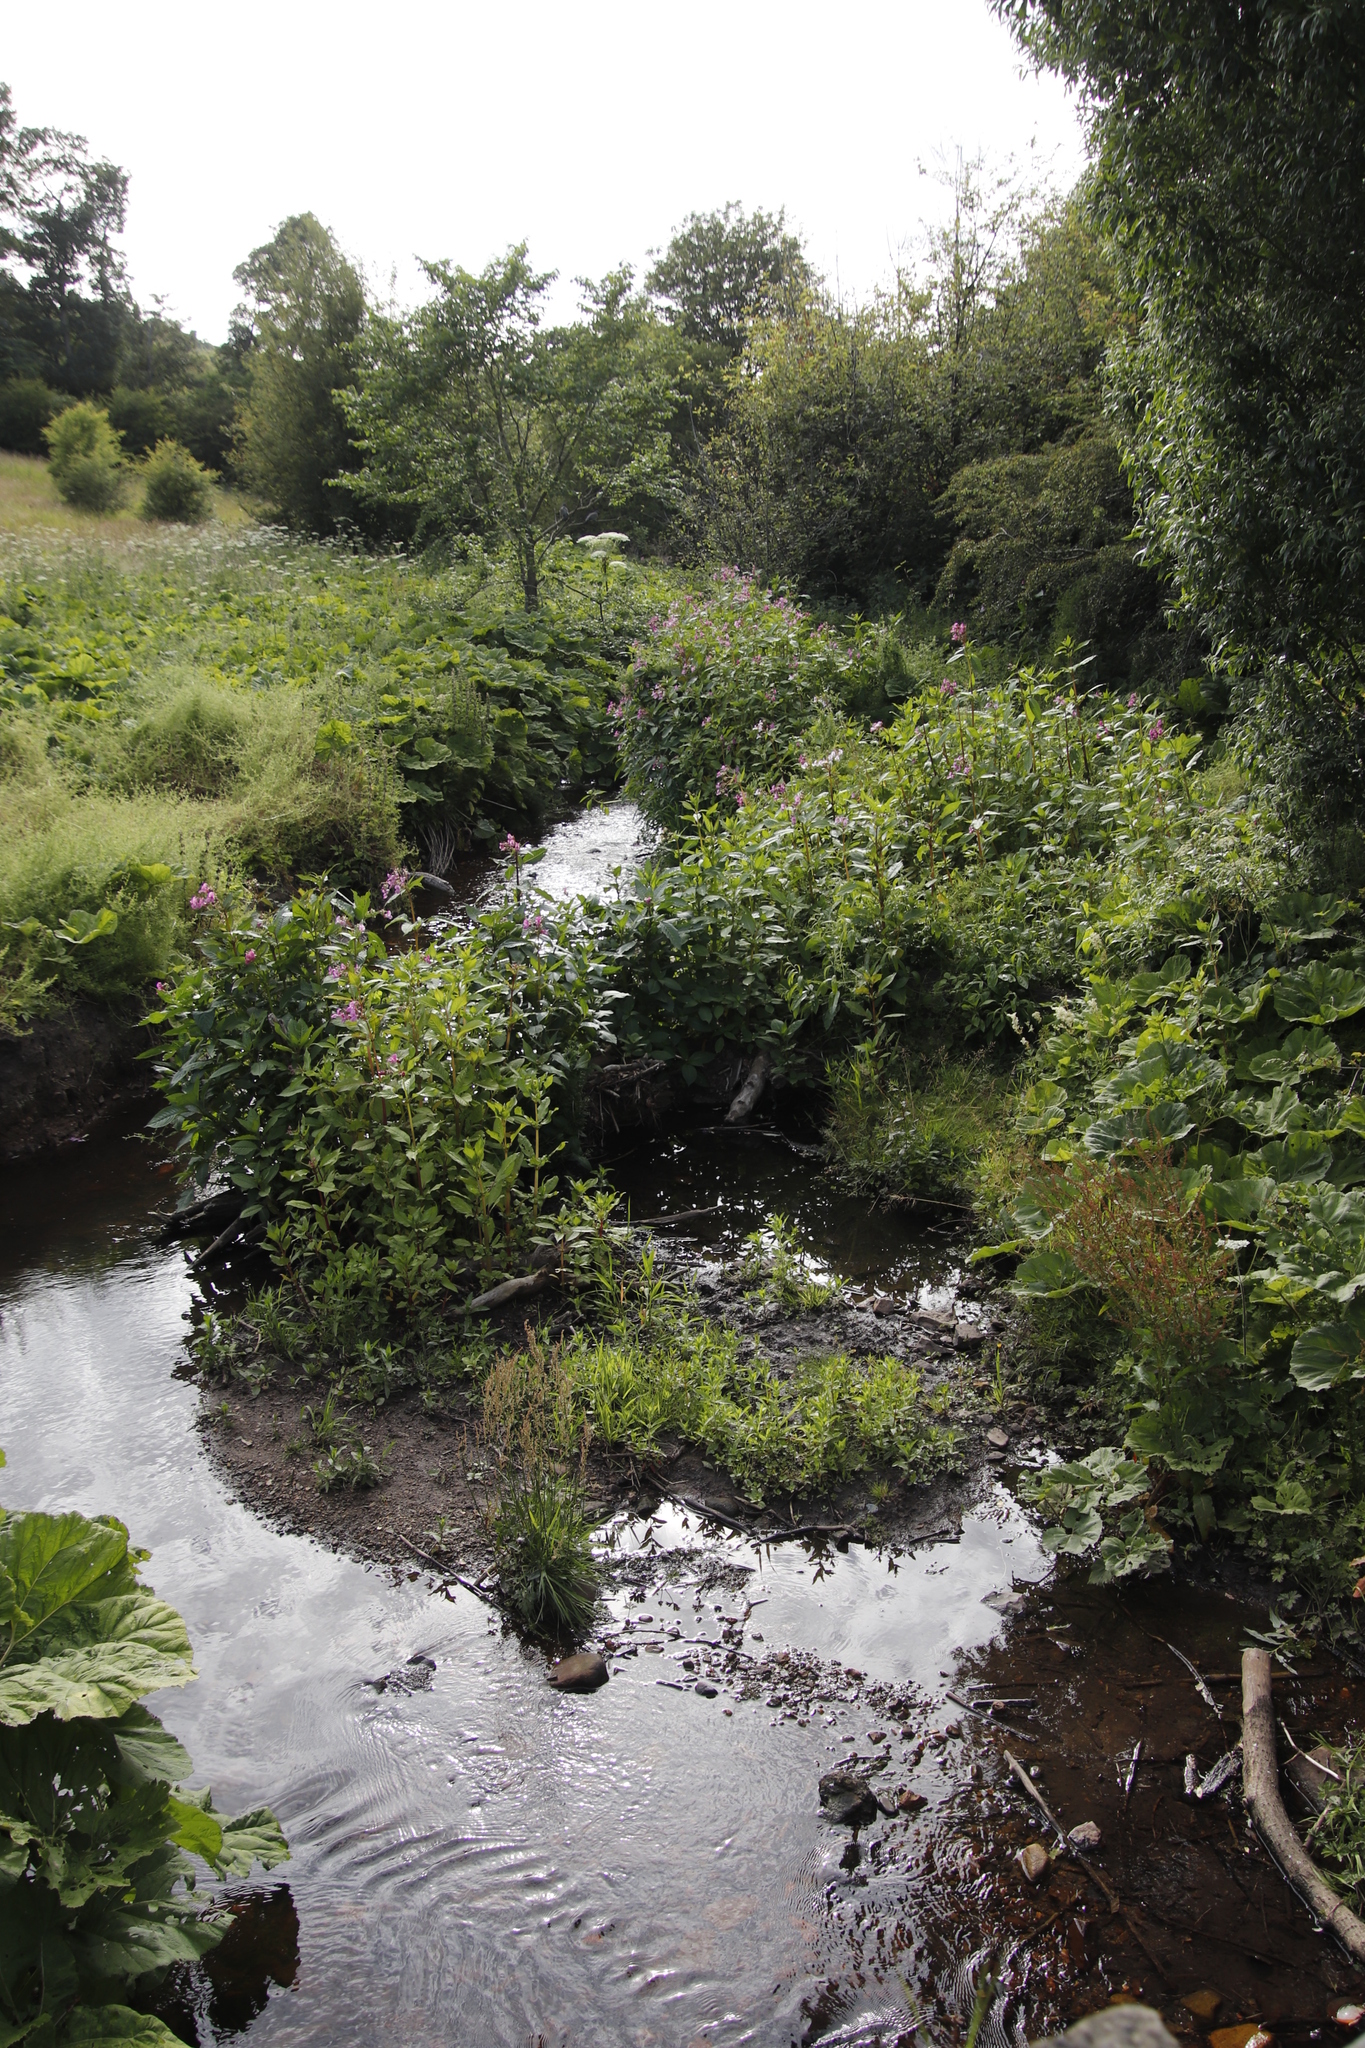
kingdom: Plantae
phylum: Tracheophyta
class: Magnoliopsida
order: Ericales
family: Balsaminaceae
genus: Impatiens
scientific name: Impatiens glandulifera
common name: Himalayan balsam
